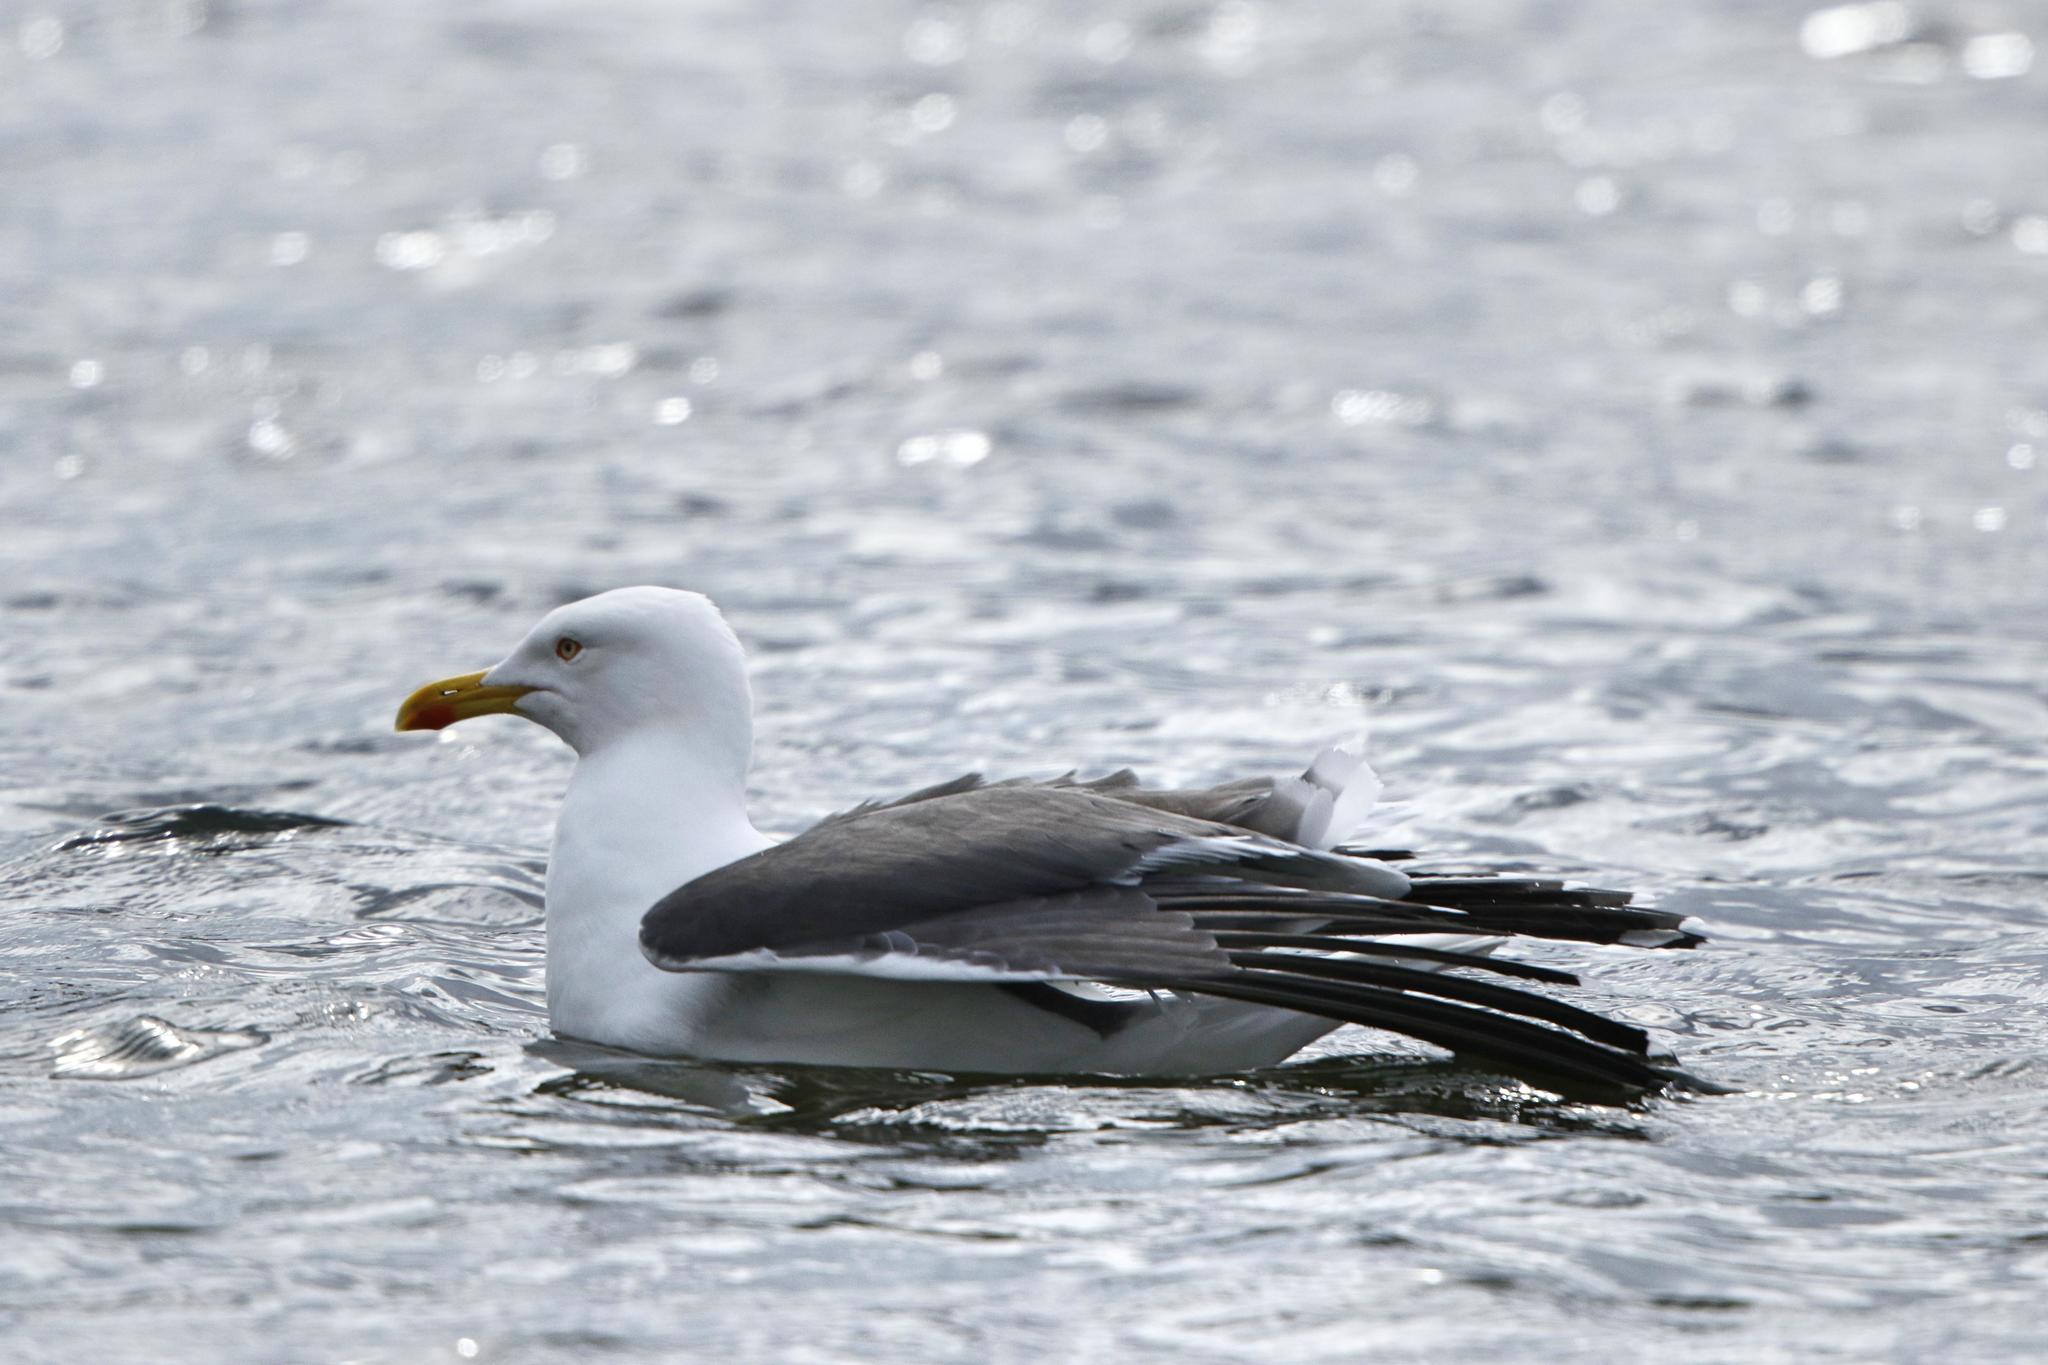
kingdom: Animalia
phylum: Chordata
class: Aves
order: Charadriiformes
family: Laridae
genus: Larus
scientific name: Larus fuscus
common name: Lesser black-backed gull
